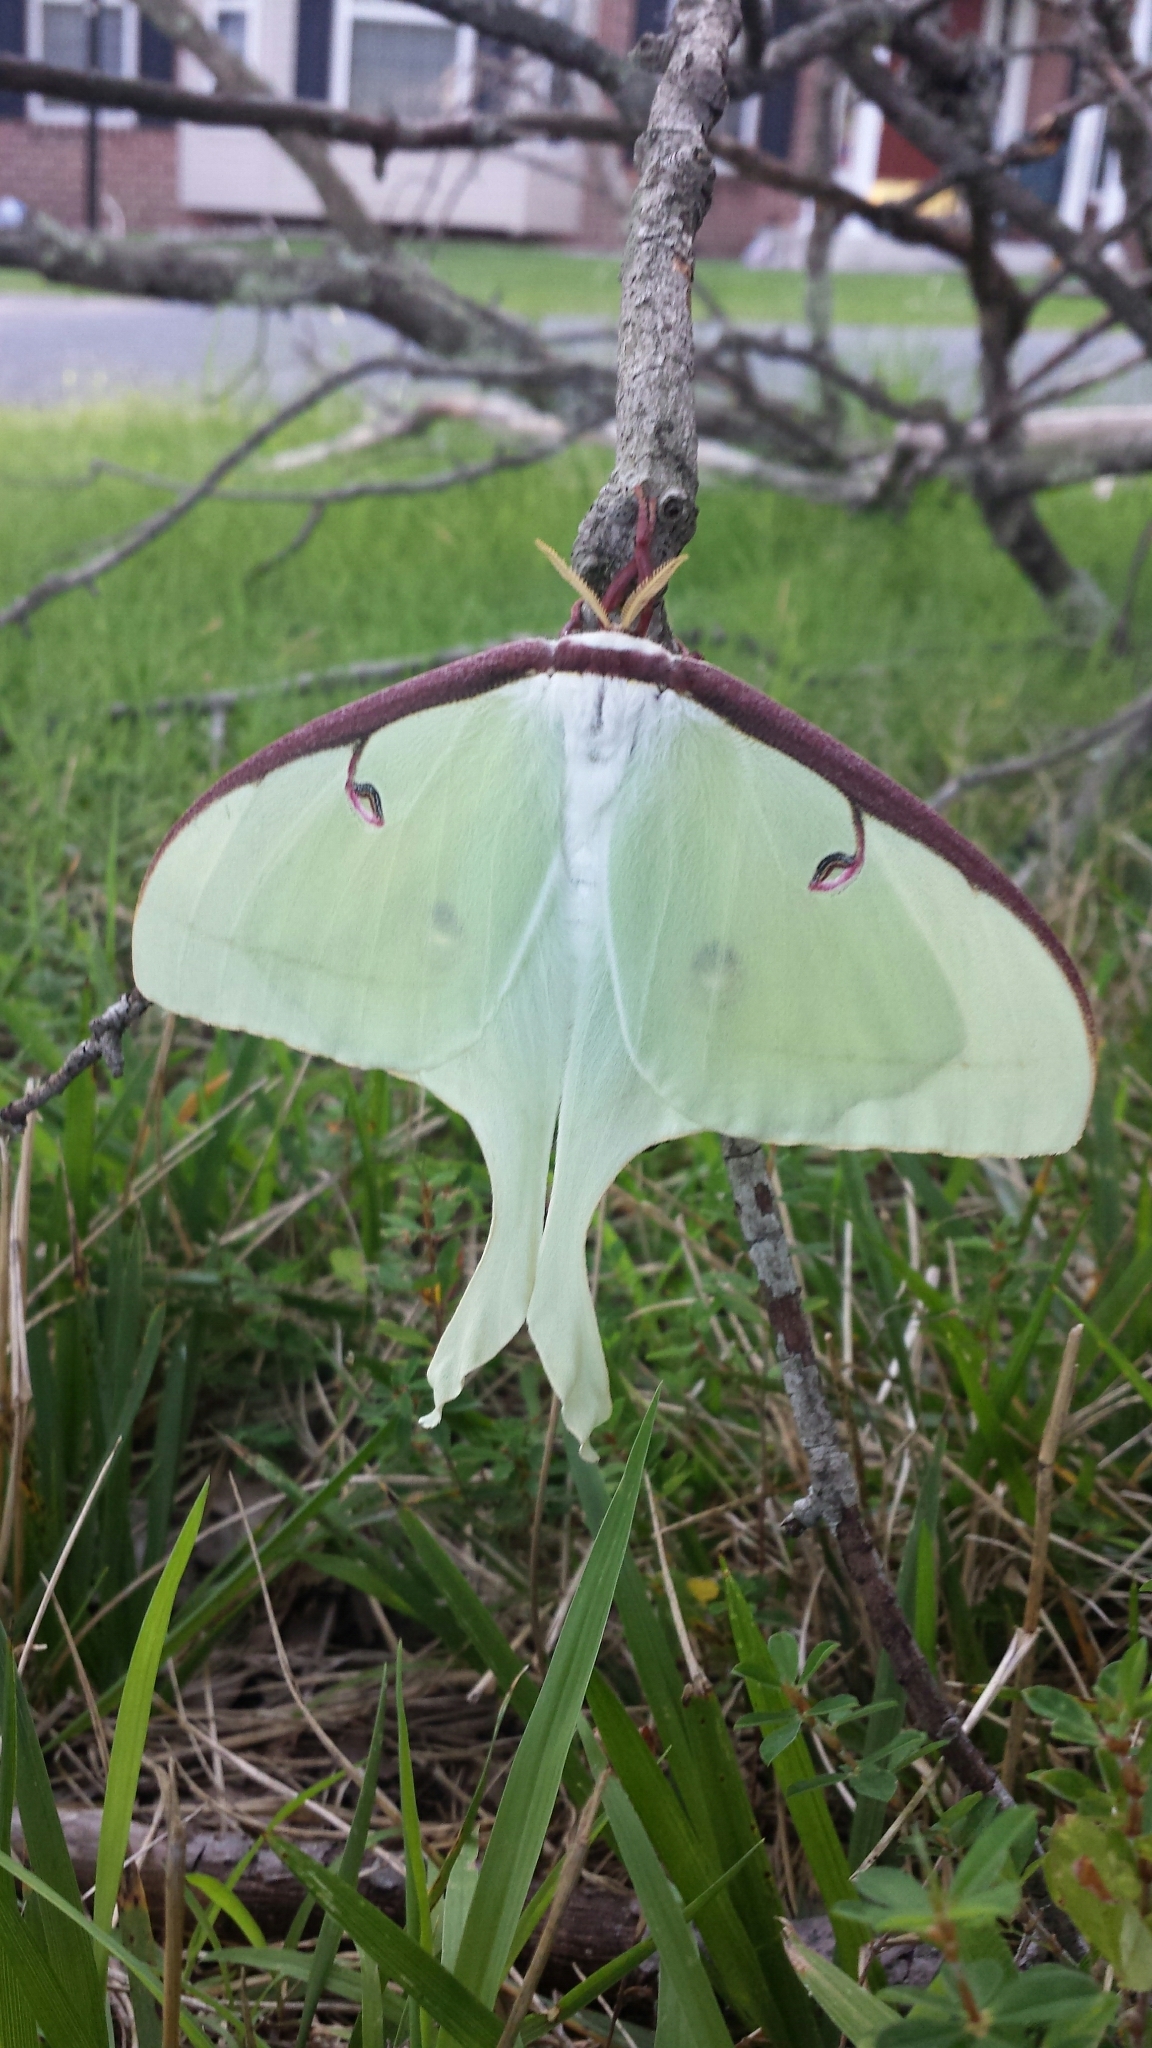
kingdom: Animalia
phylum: Arthropoda
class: Insecta
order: Lepidoptera
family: Saturniidae
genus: Actias
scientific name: Actias luna
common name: Luna moth
